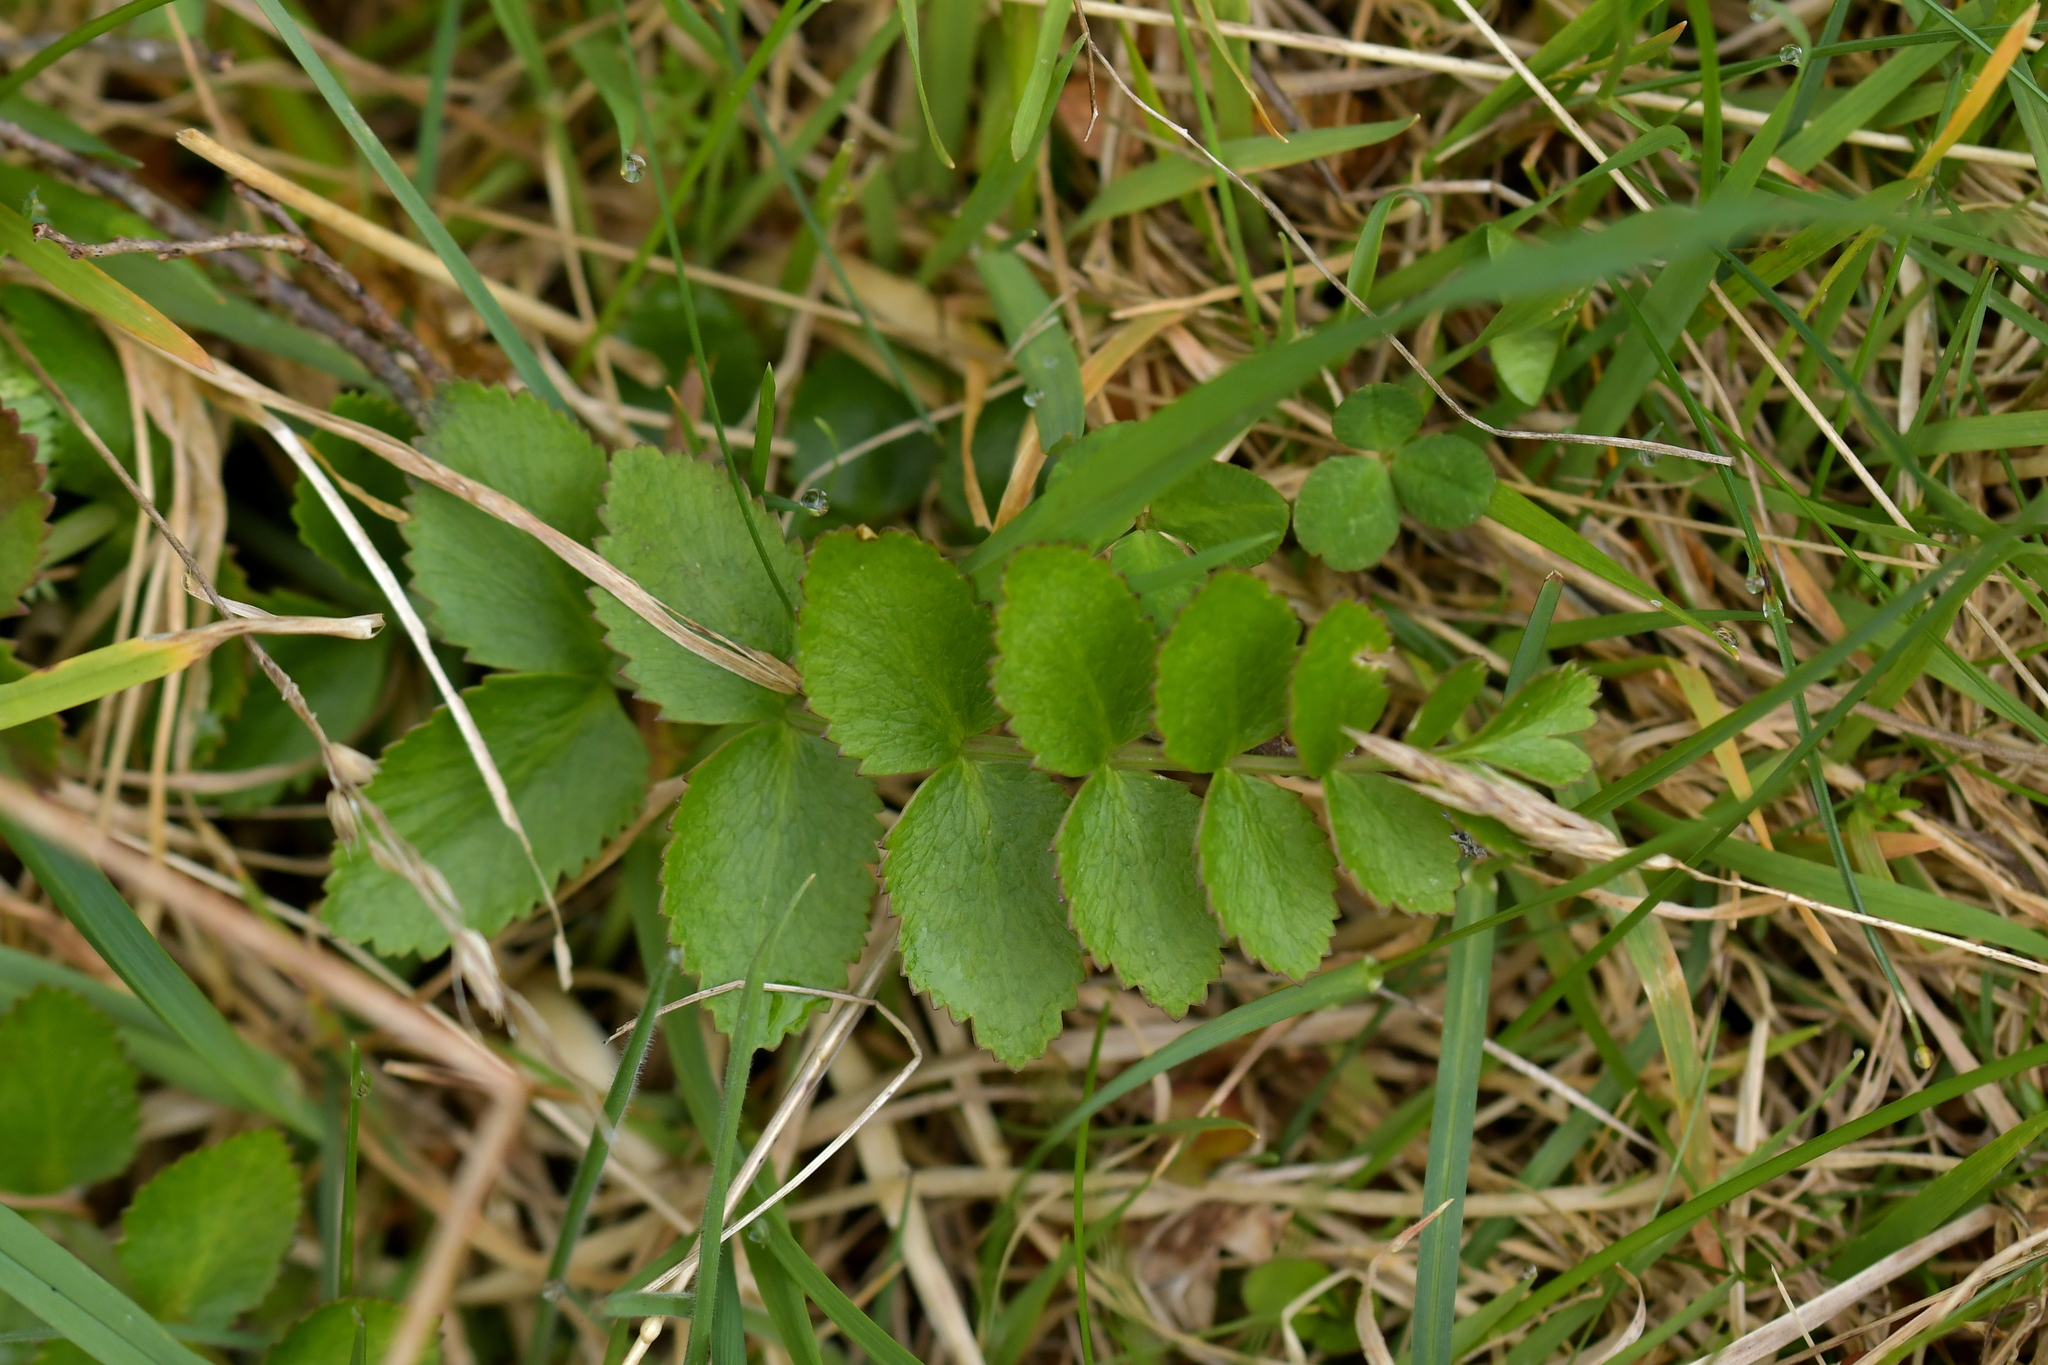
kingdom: Plantae
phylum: Tracheophyta
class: Magnoliopsida
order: Apiales
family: Apiaceae
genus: Gingidia
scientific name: Gingidia montana
